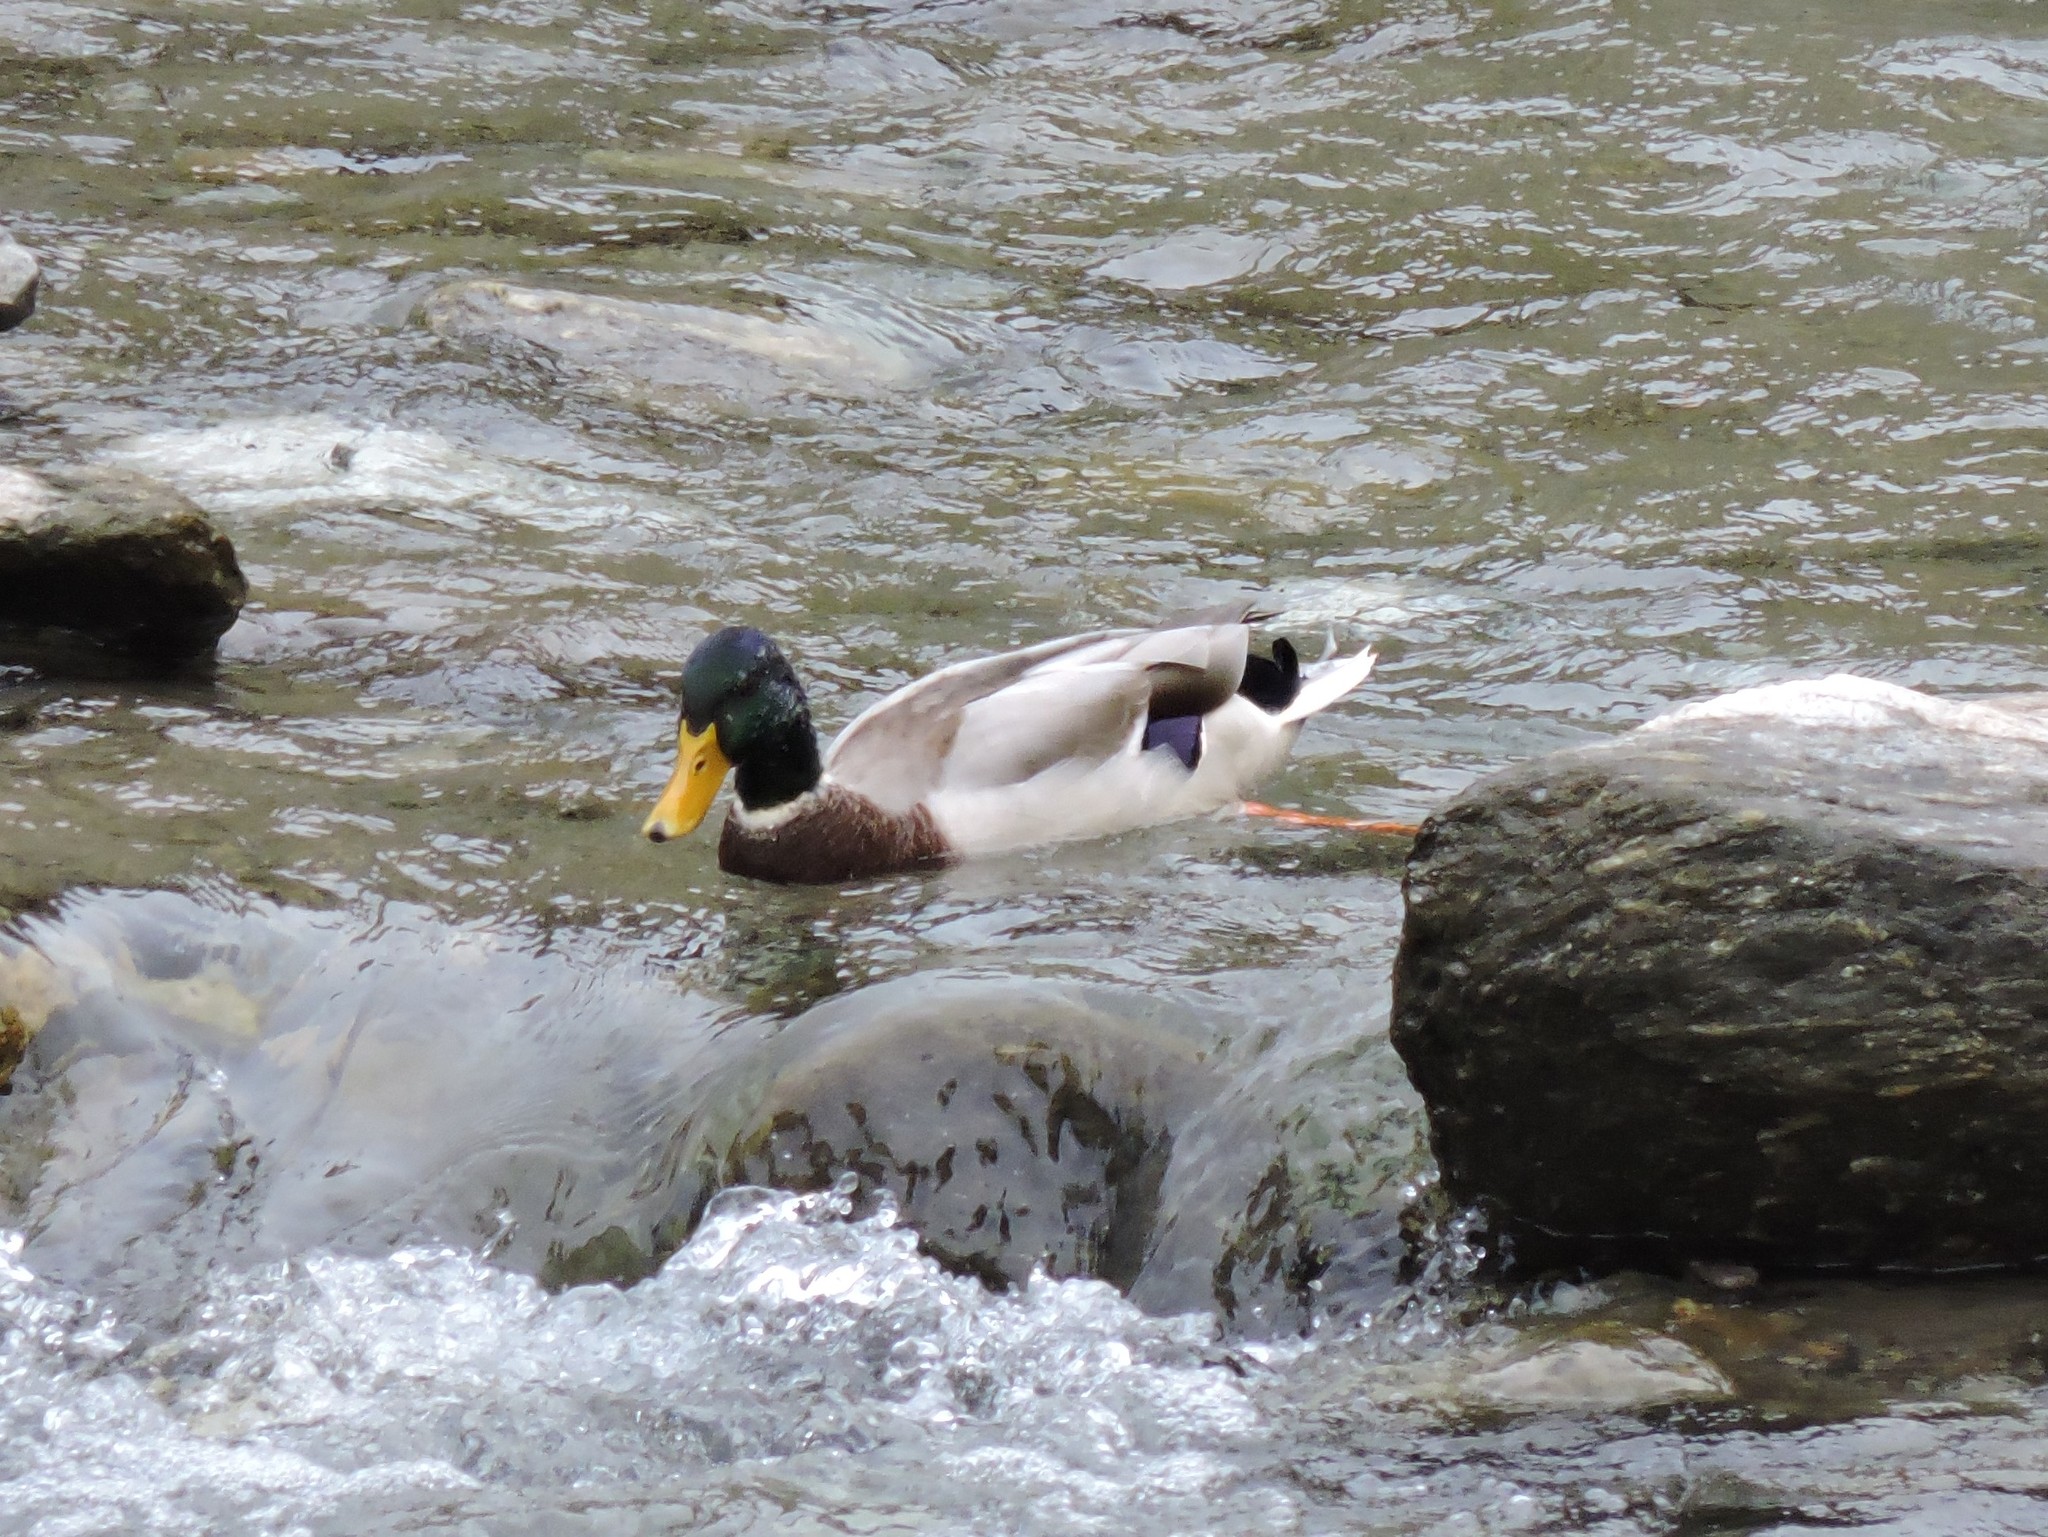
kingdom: Animalia
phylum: Chordata
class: Aves
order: Anseriformes
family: Anatidae
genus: Anas
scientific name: Anas platyrhynchos
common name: Mallard
